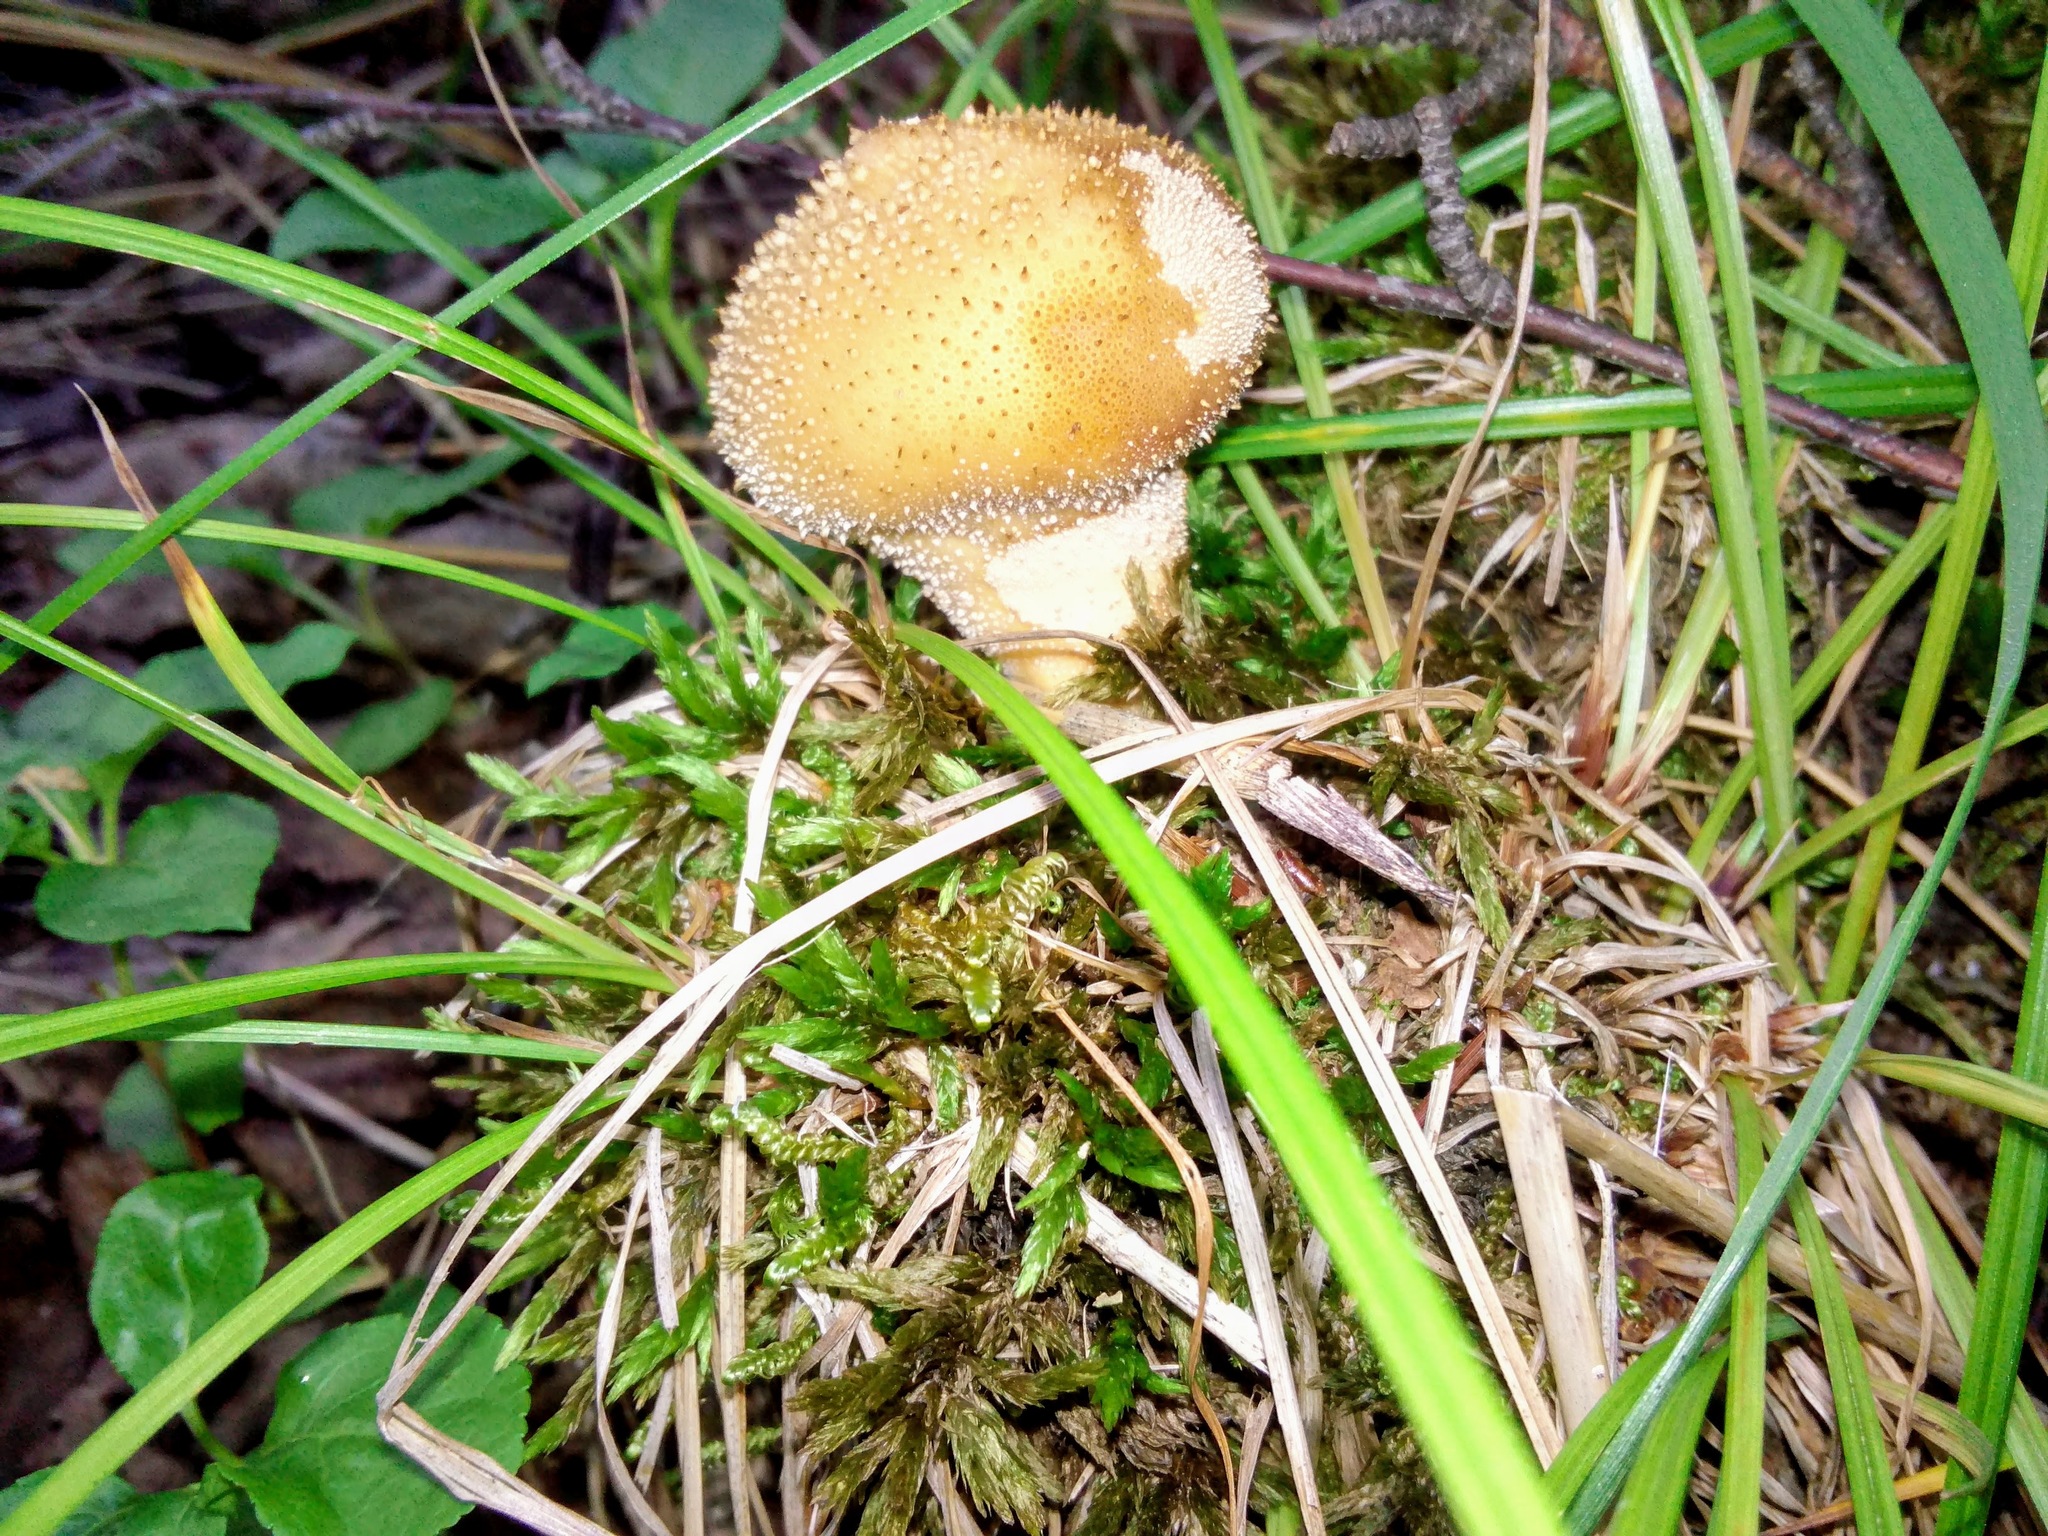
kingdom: Fungi
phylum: Basidiomycota
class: Agaricomycetes
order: Agaricales
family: Lycoperdaceae
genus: Lycoperdon
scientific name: Lycoperdon perlatum
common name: Common puffball
